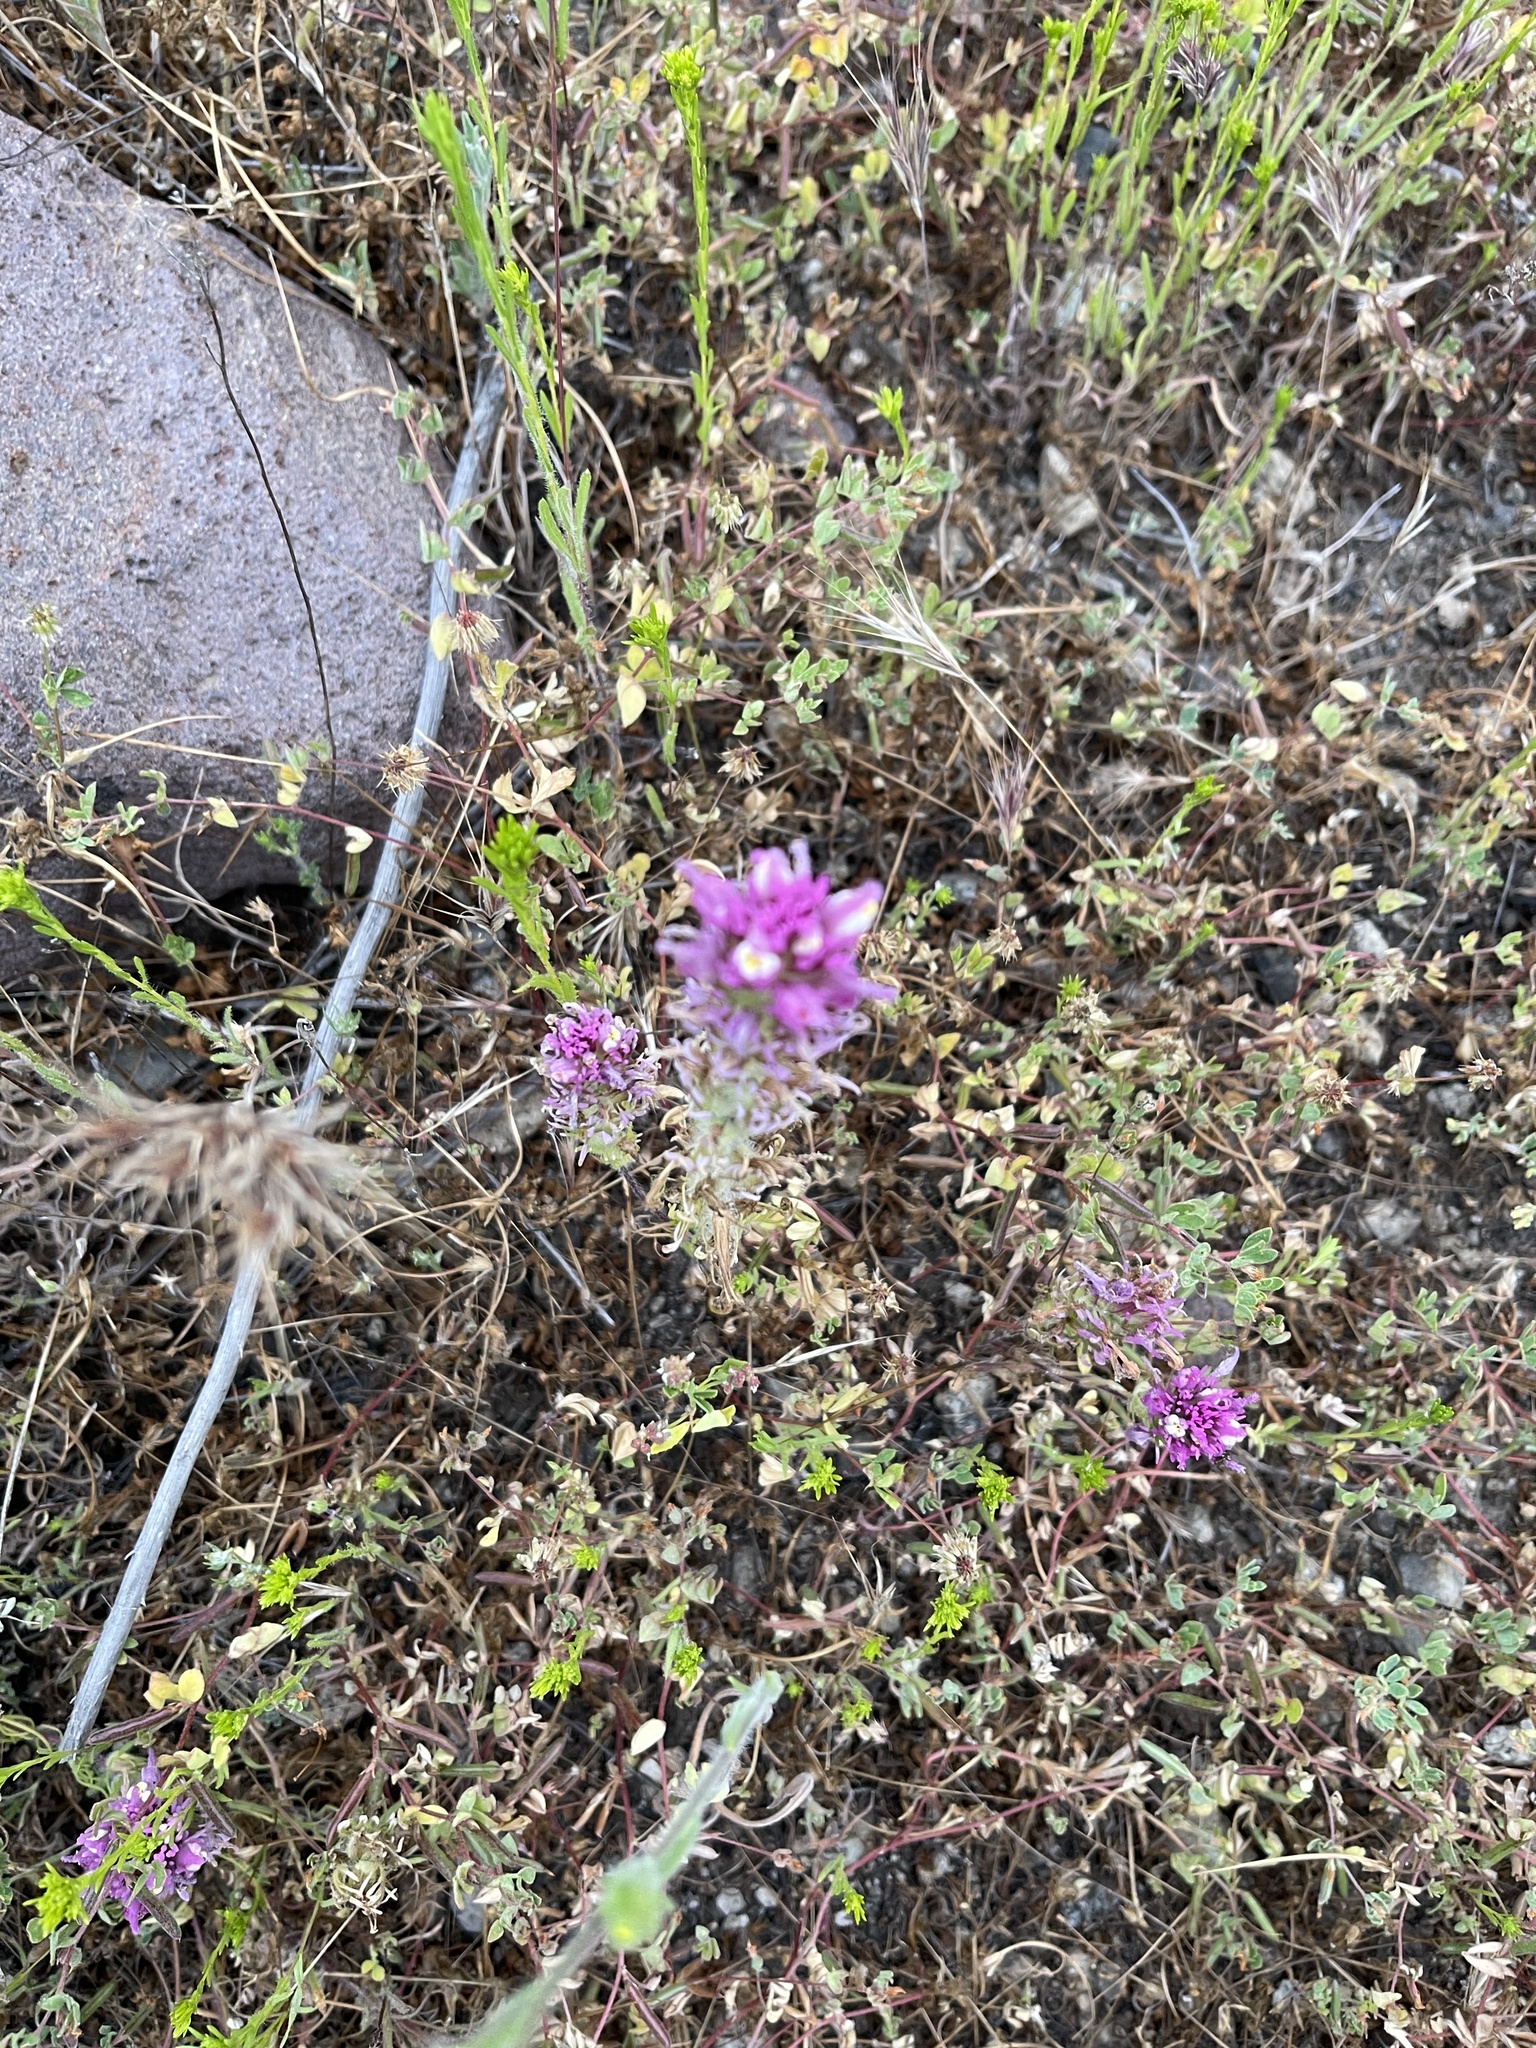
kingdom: Plantae
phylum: Tracheophyta
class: Magnoliopsida
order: Lamiales
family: Orobanchaceae
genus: Castilleja
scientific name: Castilleja exserta
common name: Purple owl-clover
